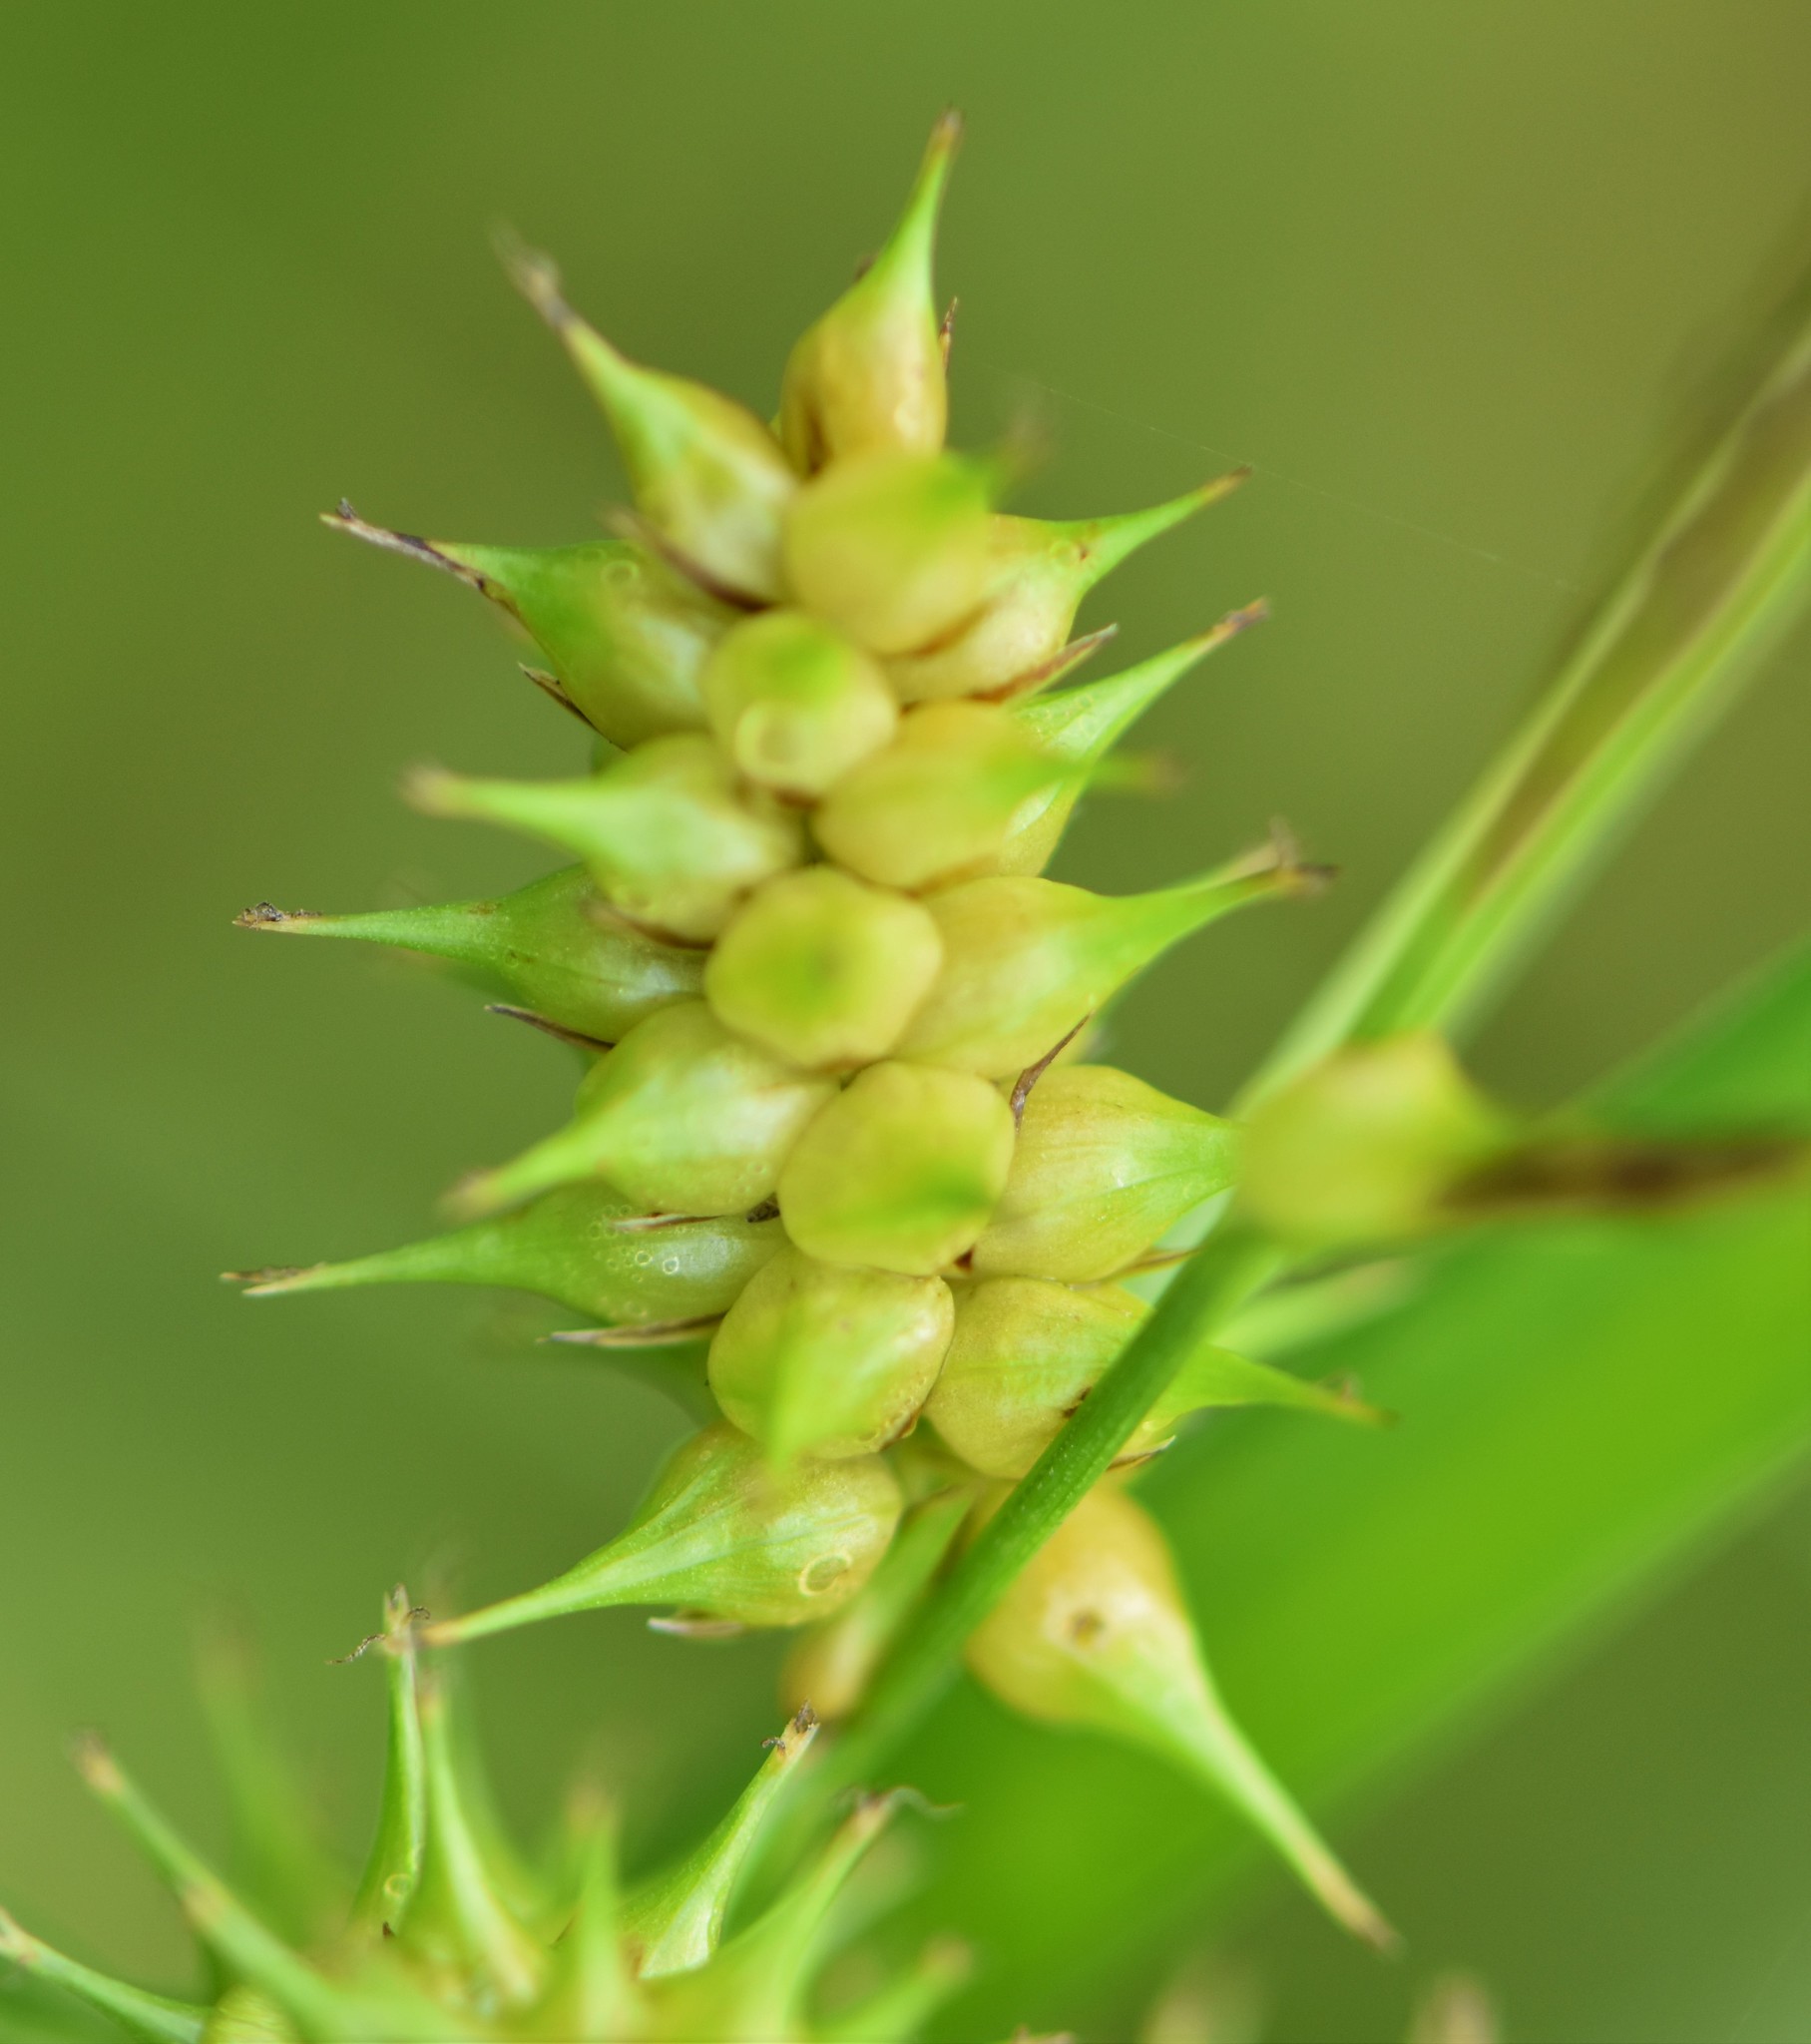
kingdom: Plantae
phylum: Tracheophyta
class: Liliopsida
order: Poales
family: Cyperaceae
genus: Carex
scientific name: Carex retrorsa
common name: Knot-sheath sedge
